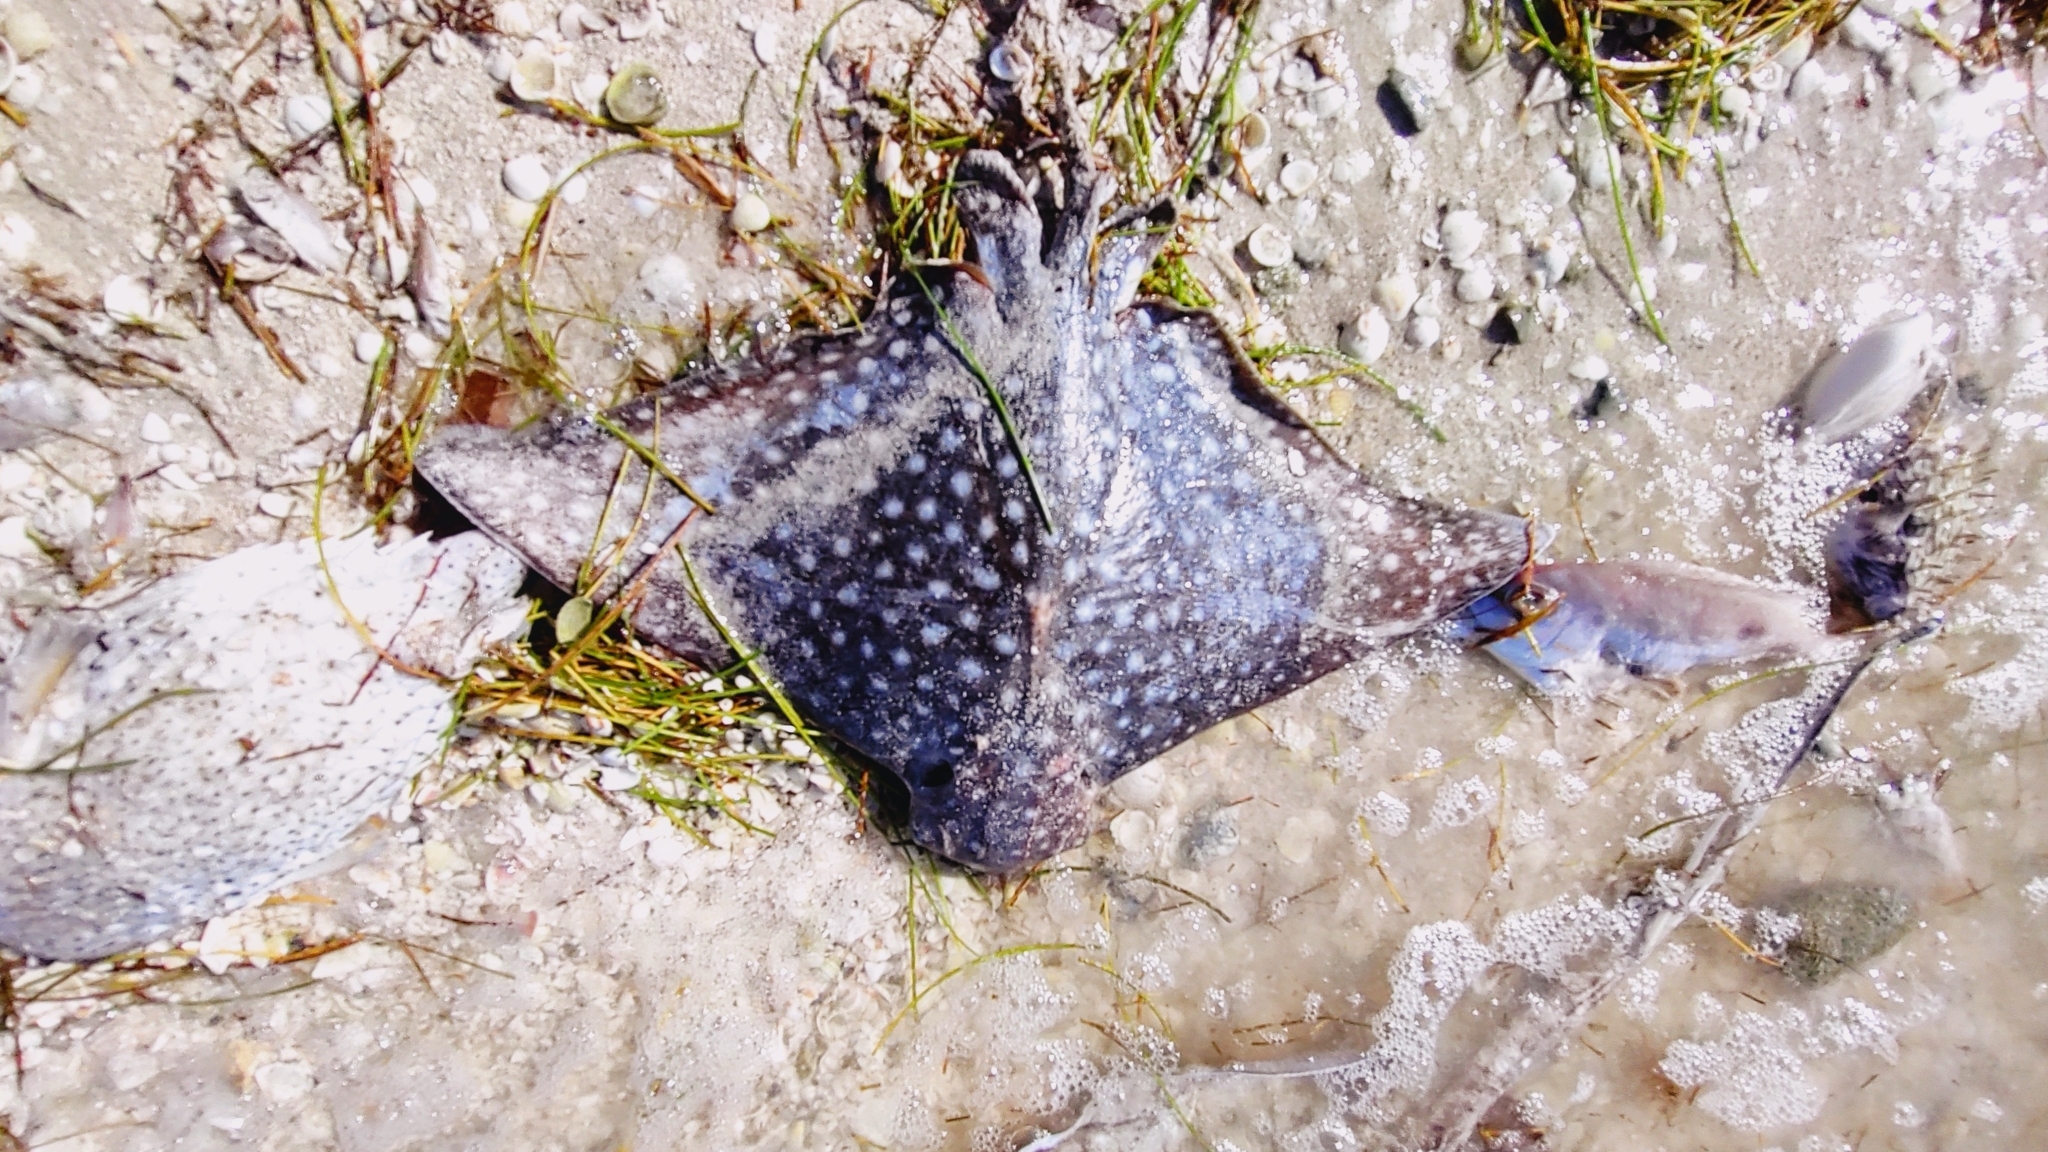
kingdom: Animalia
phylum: Chordata
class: Elasmobranchii
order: Myliobatiformes
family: Myliobatidae
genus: Aetobatus
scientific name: Aetobatus narinari
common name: Spotted eagle ray
